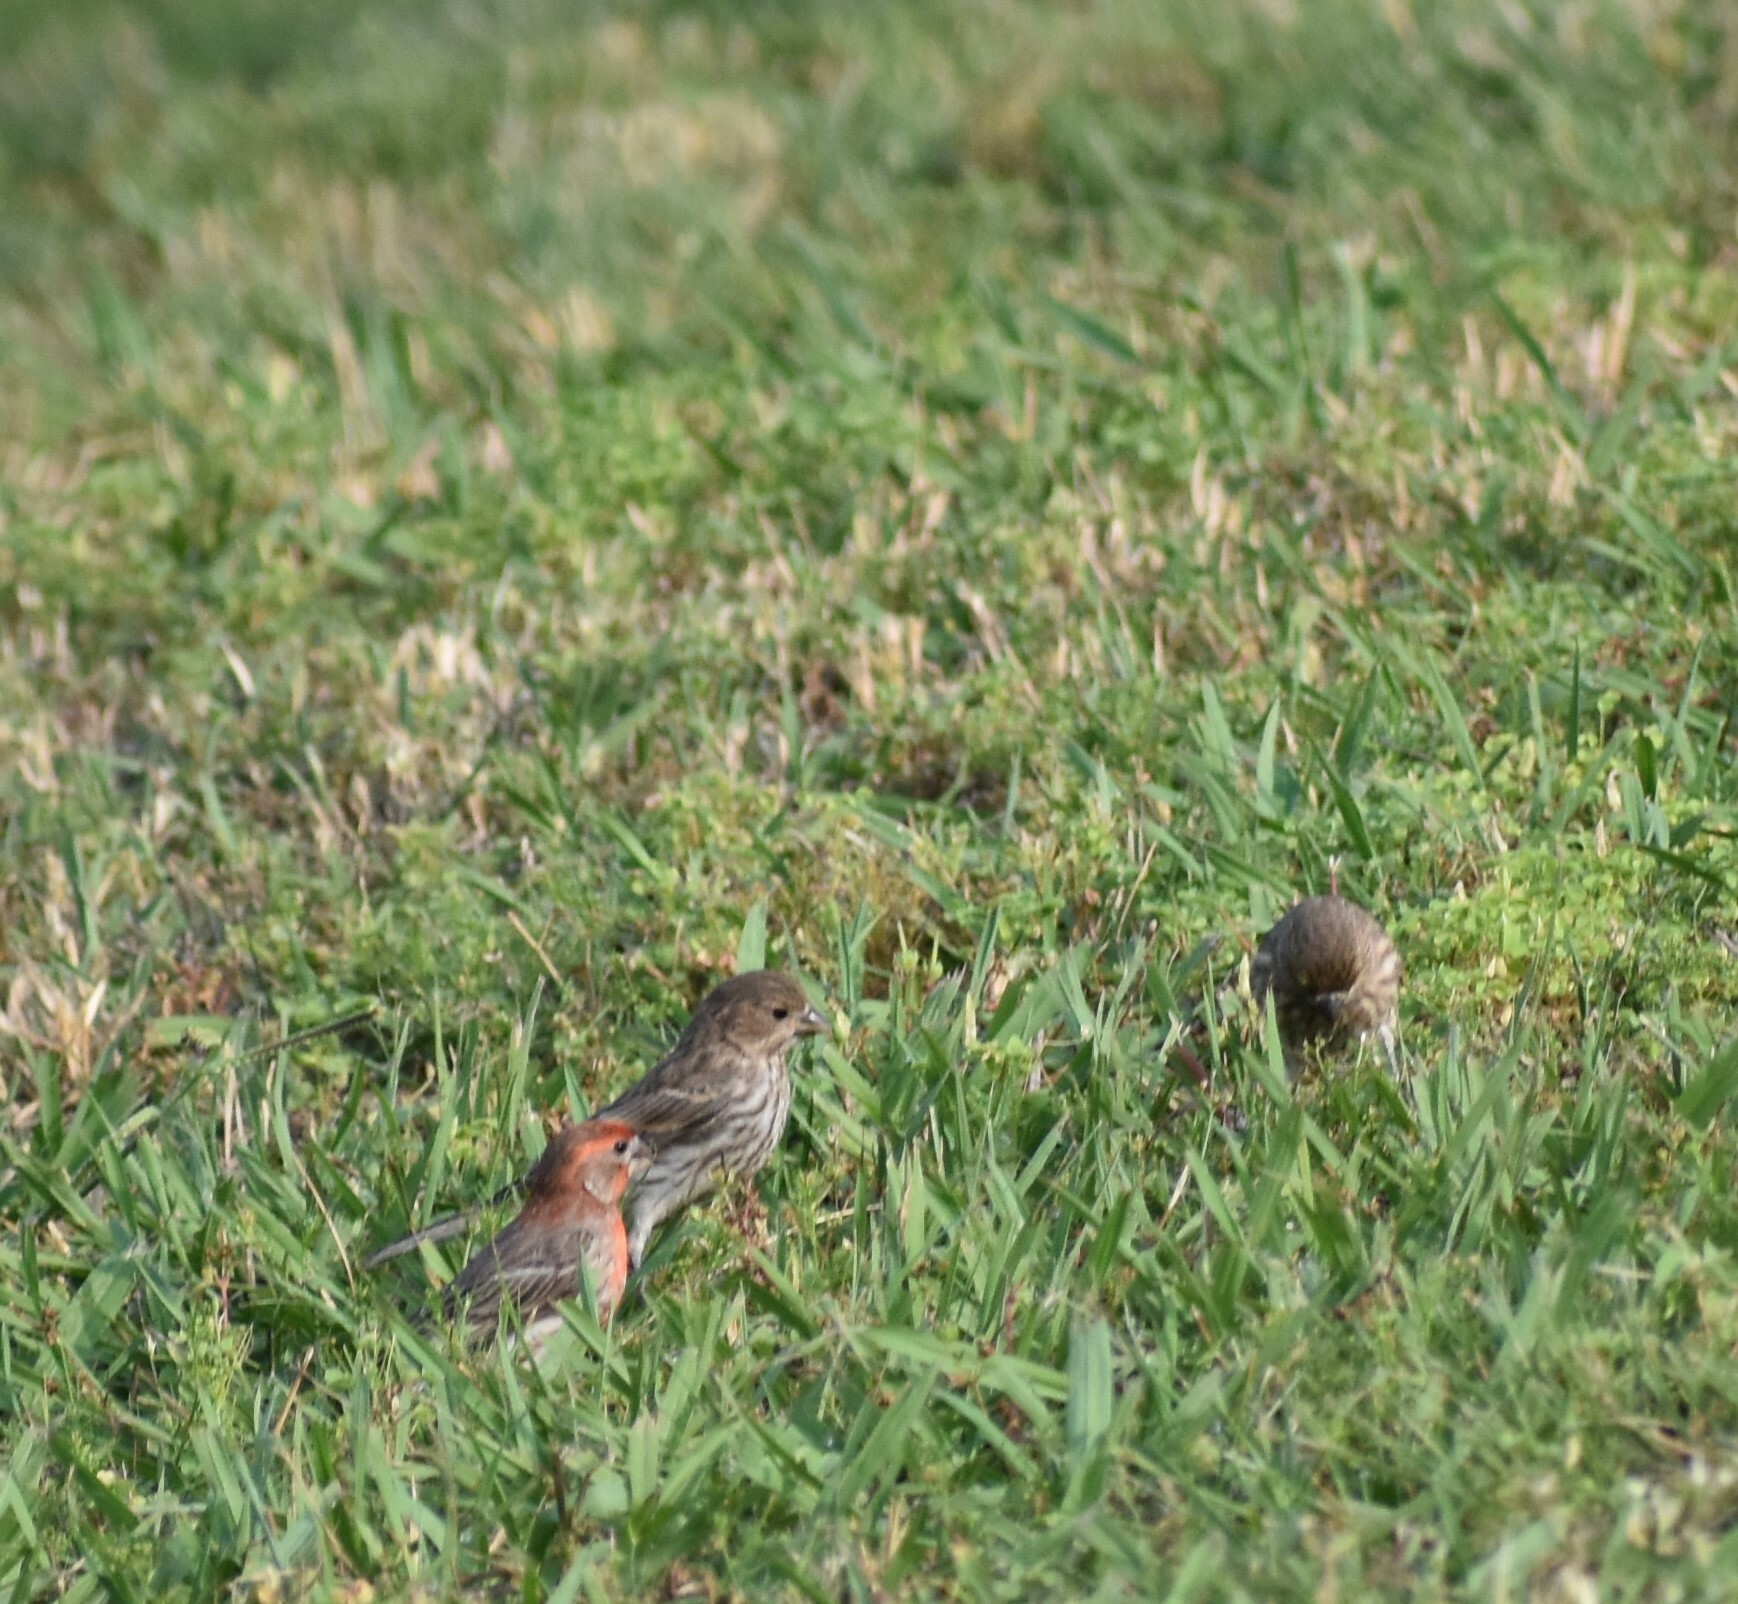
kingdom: Animalia
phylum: Chordata
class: Aves
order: Passeriformes
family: Fringillidae
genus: Haemorhous
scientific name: Haemorhous mexicanus
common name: House finch
